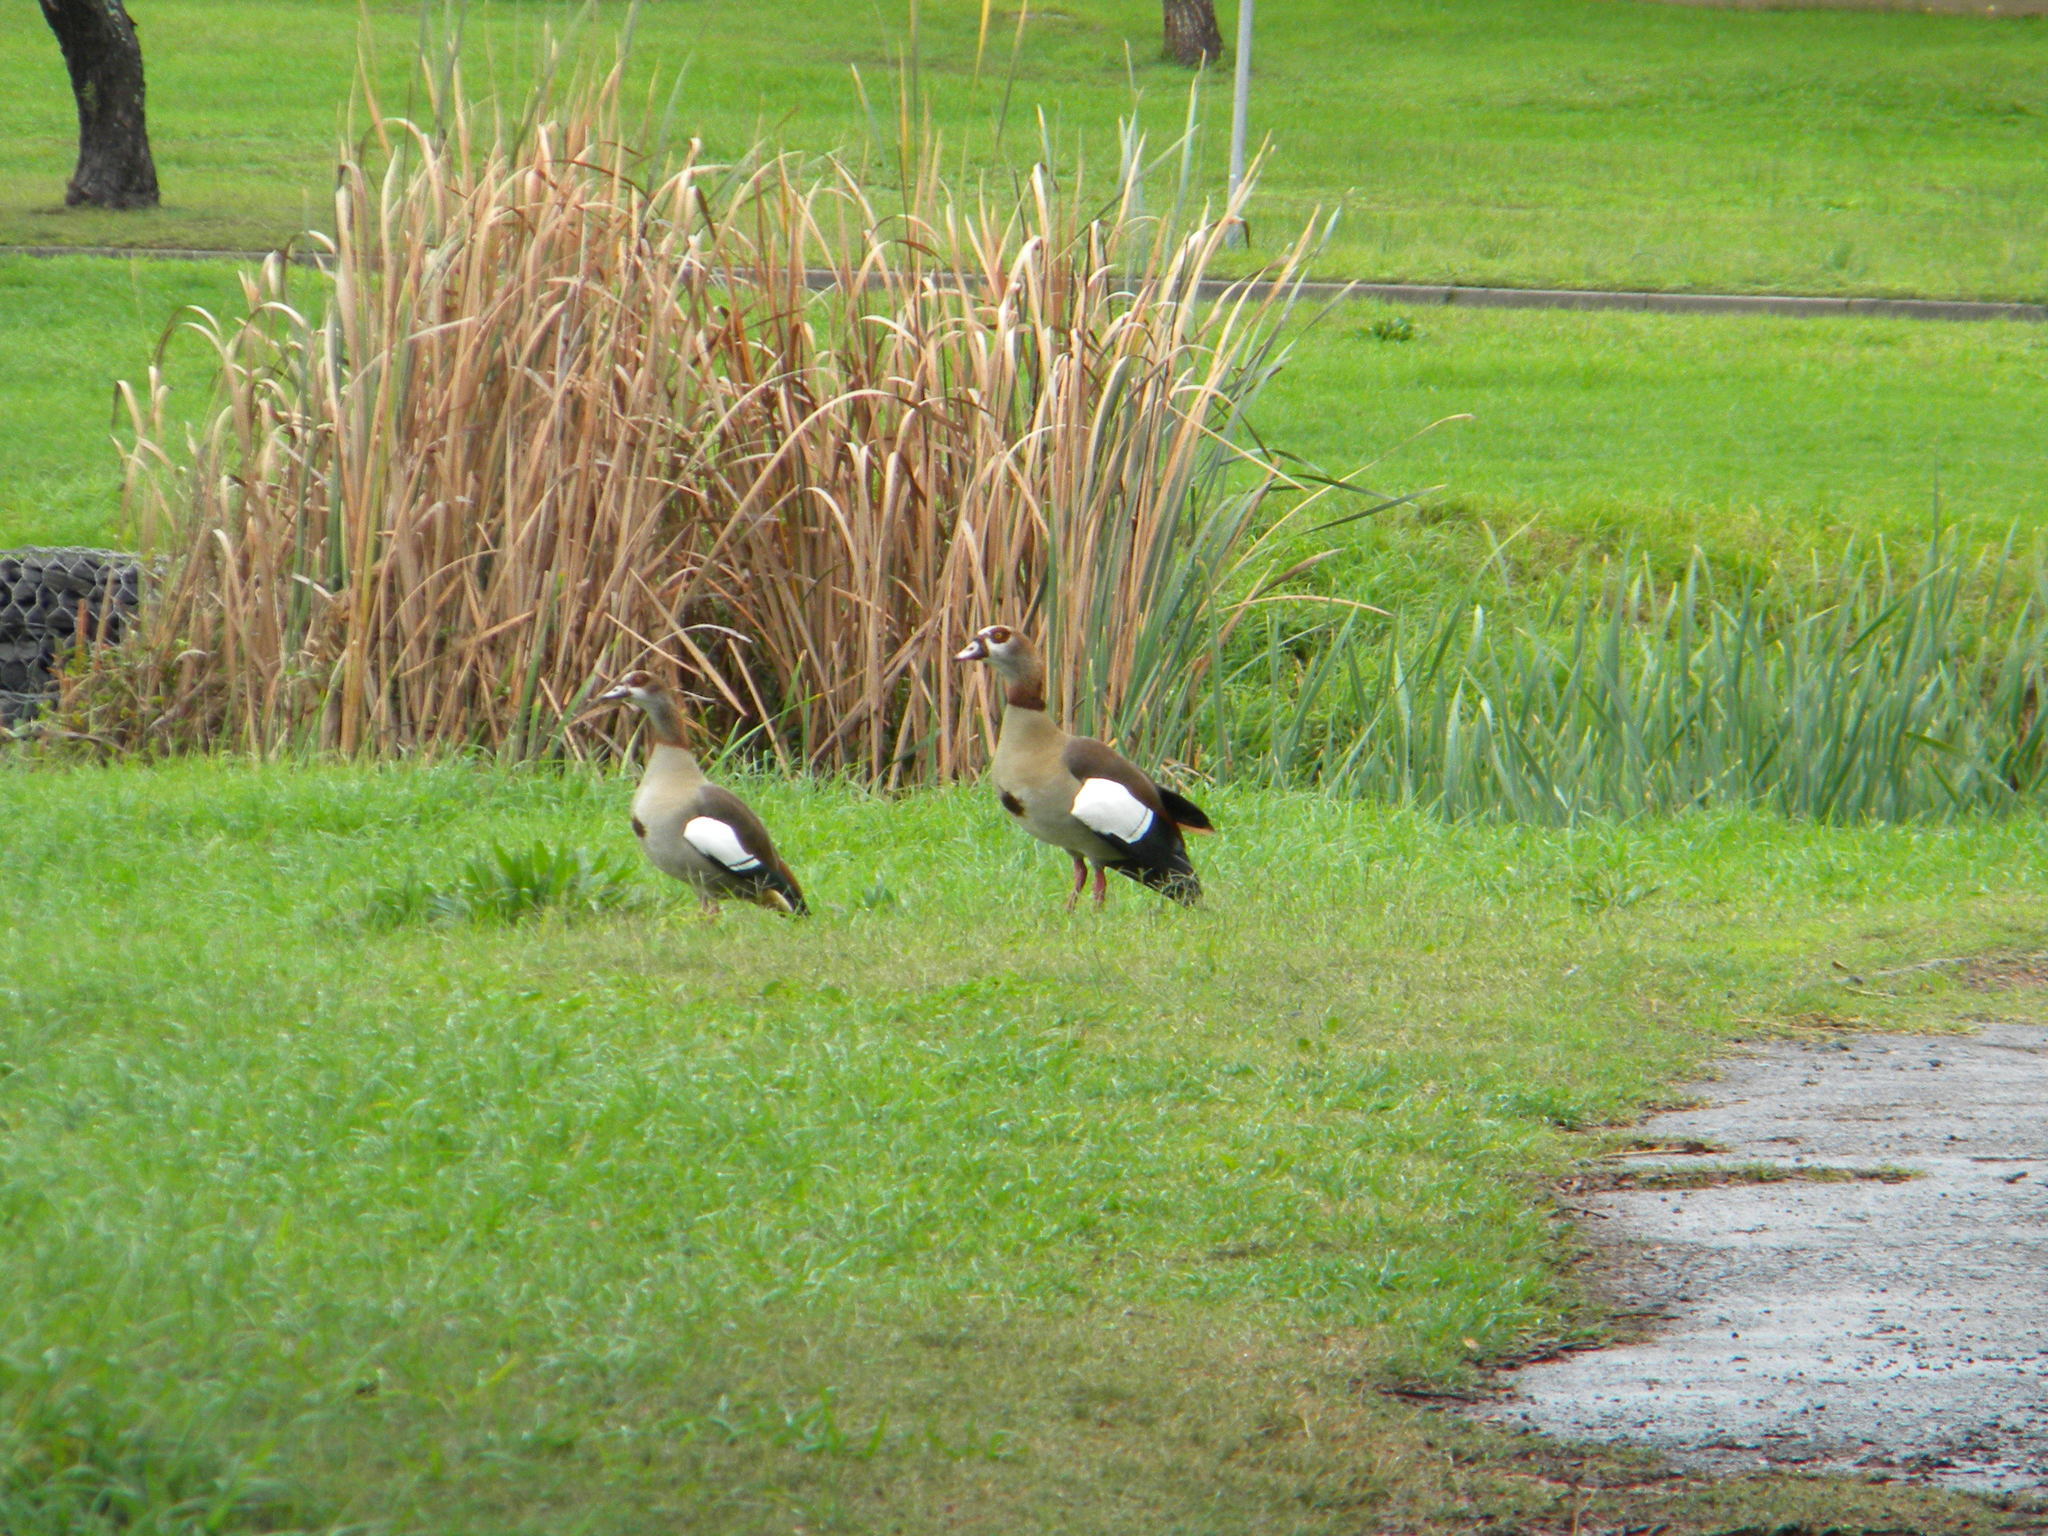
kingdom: Animalia
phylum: Chordata
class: Aves
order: Anseriformes
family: Anatidae
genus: Alopochen
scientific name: Alopochen aegyptiaca
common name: Egyptian goose
